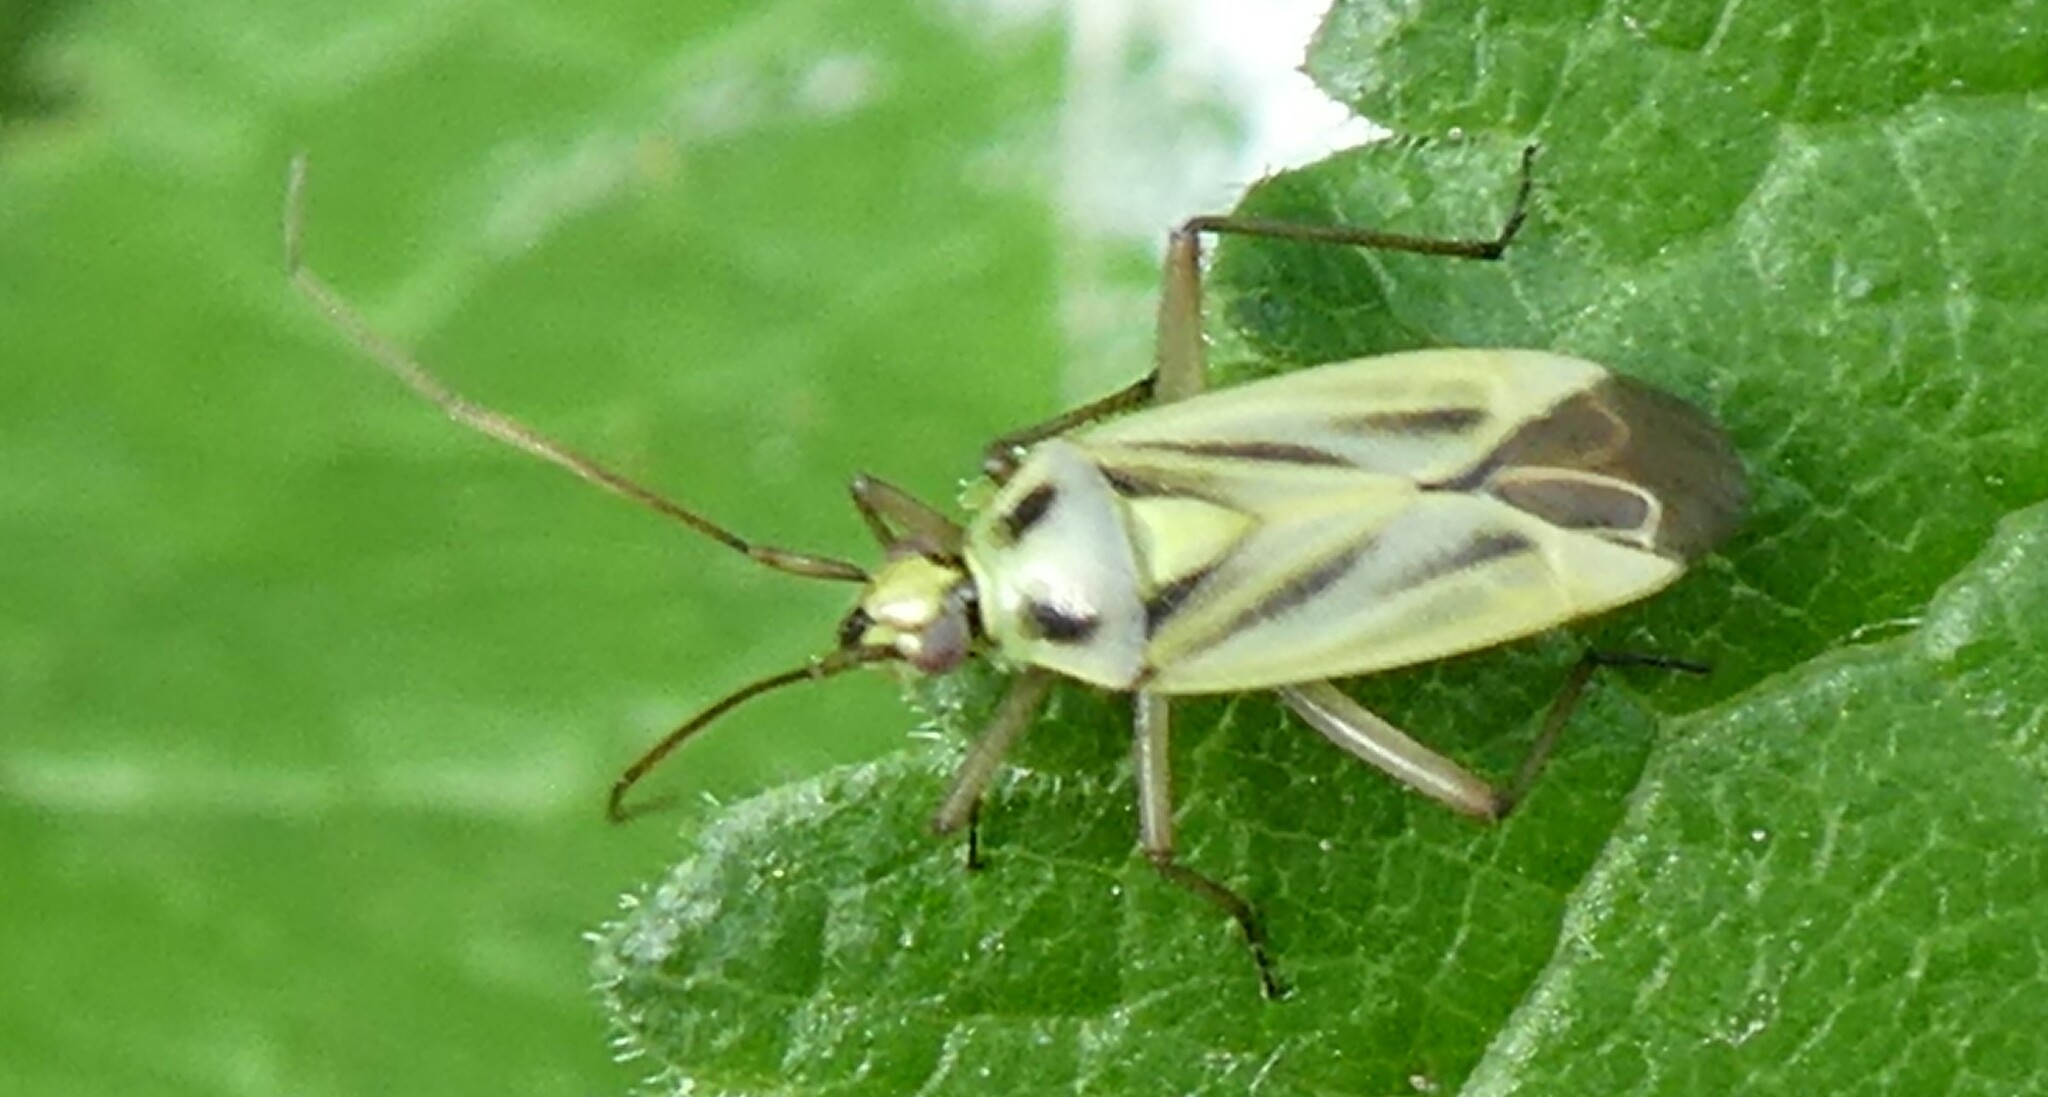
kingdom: Animalia
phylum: Arthropoda
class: Insecta
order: Hemiptera
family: Miridae
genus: Stenotus
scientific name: Stenotus binotatus
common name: Plant bug
